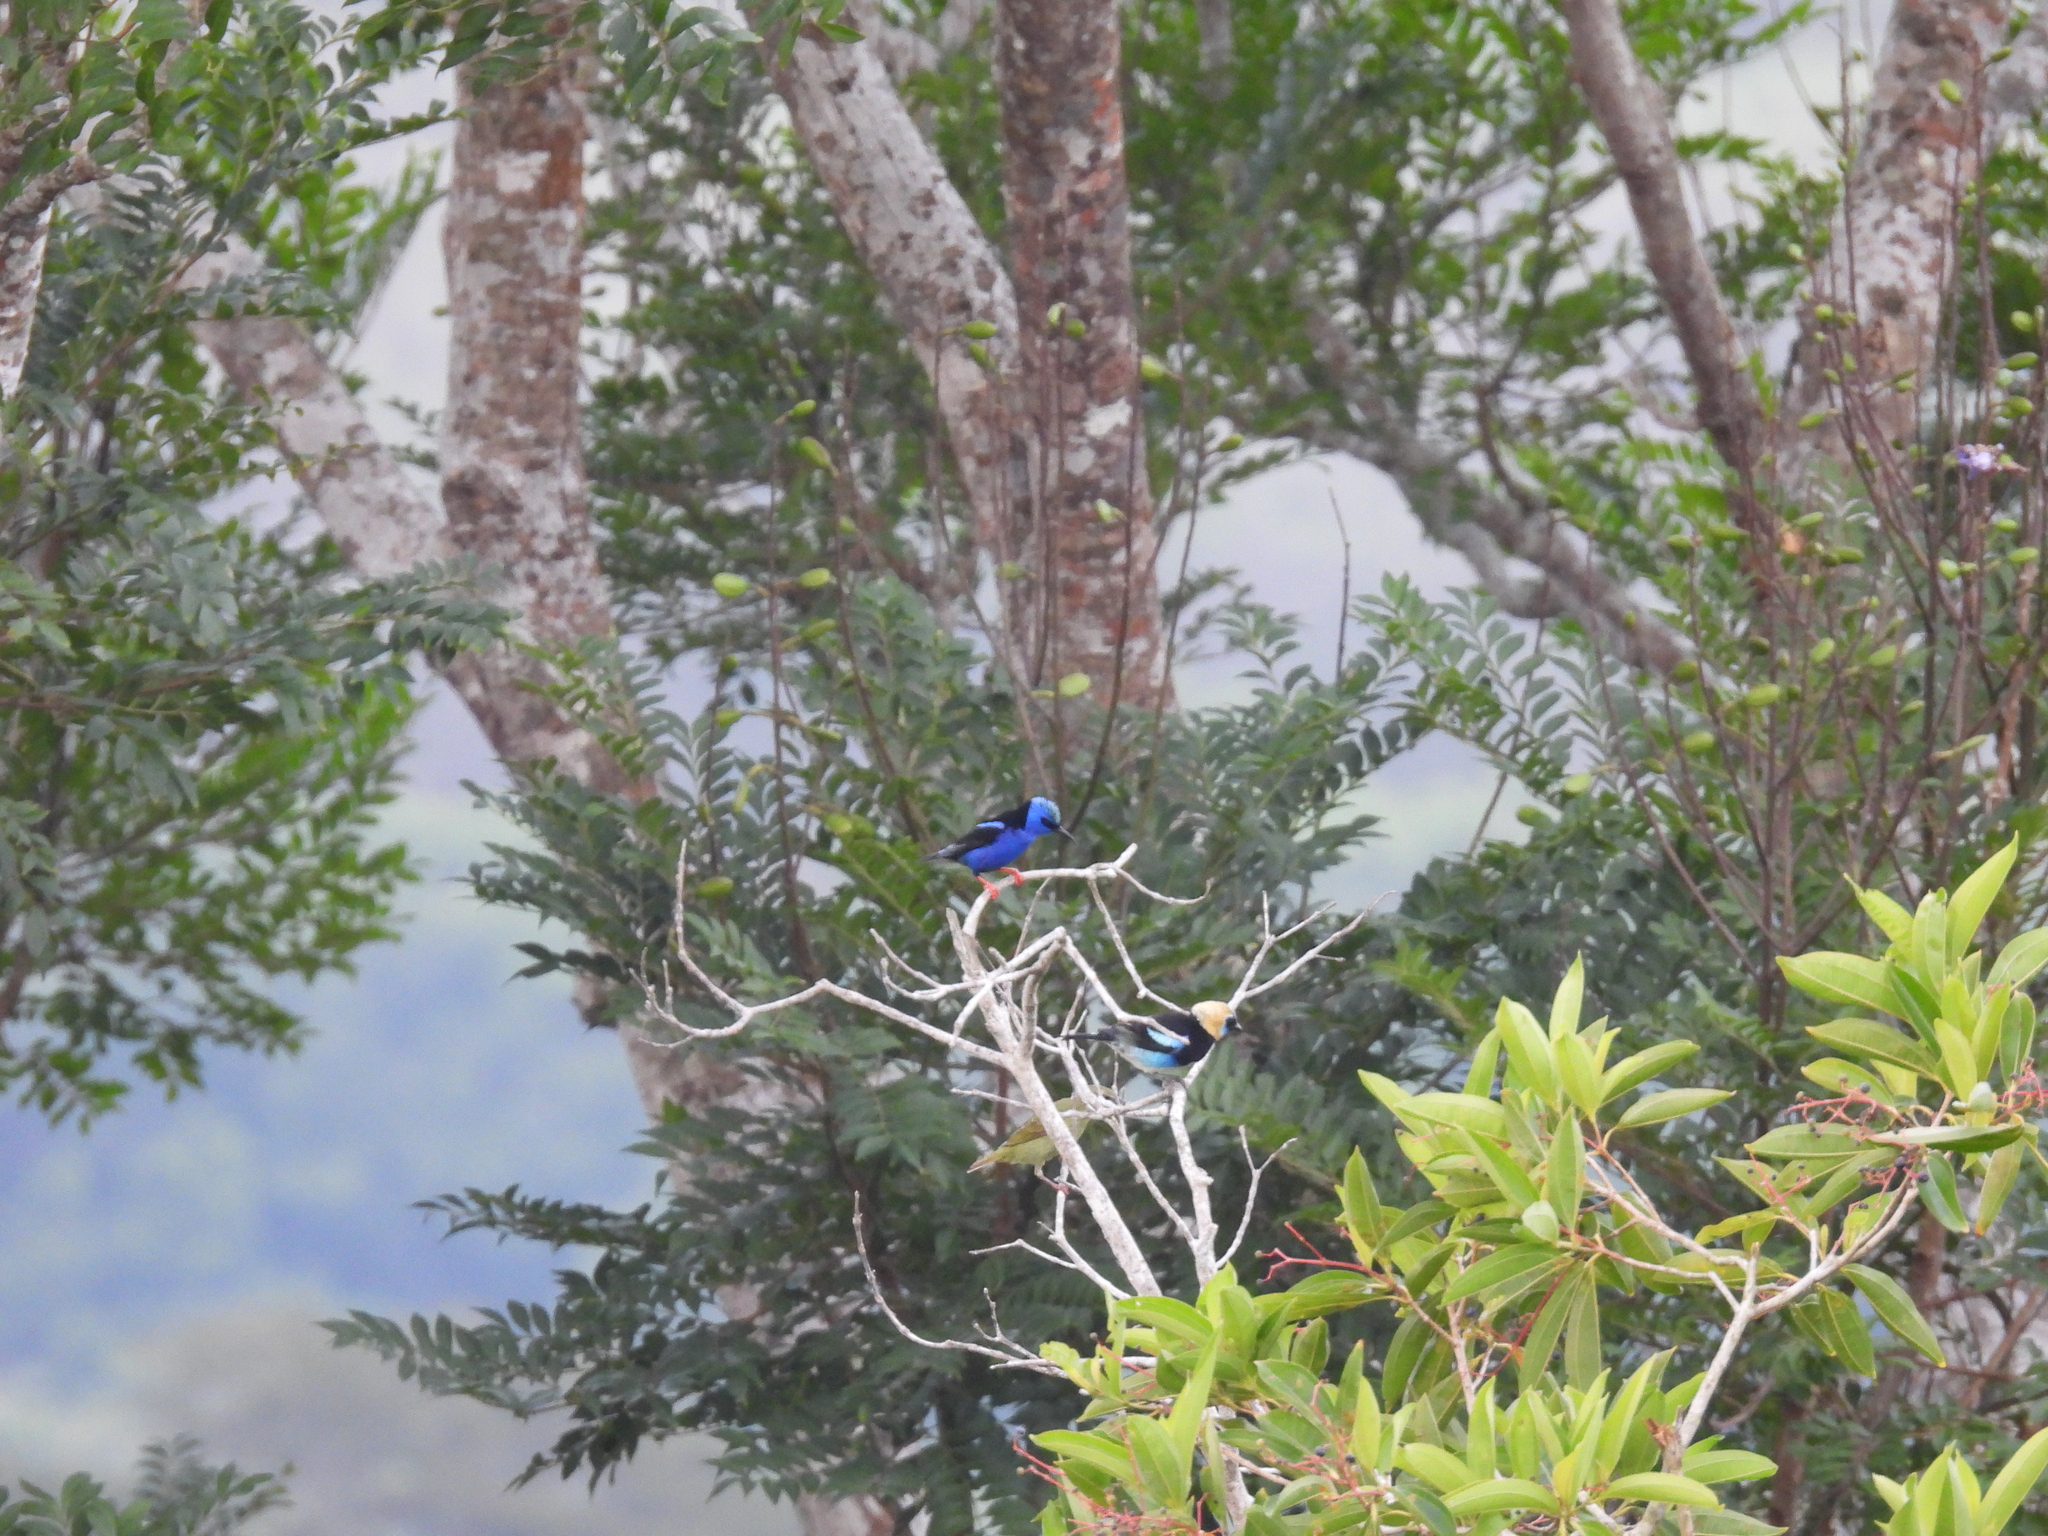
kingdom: Animalia
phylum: Chordata
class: Aves
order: Passeriformes
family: Thraupidae
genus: Stilpnia
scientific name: Stilpnia larvata
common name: Golden-hooded tanager
